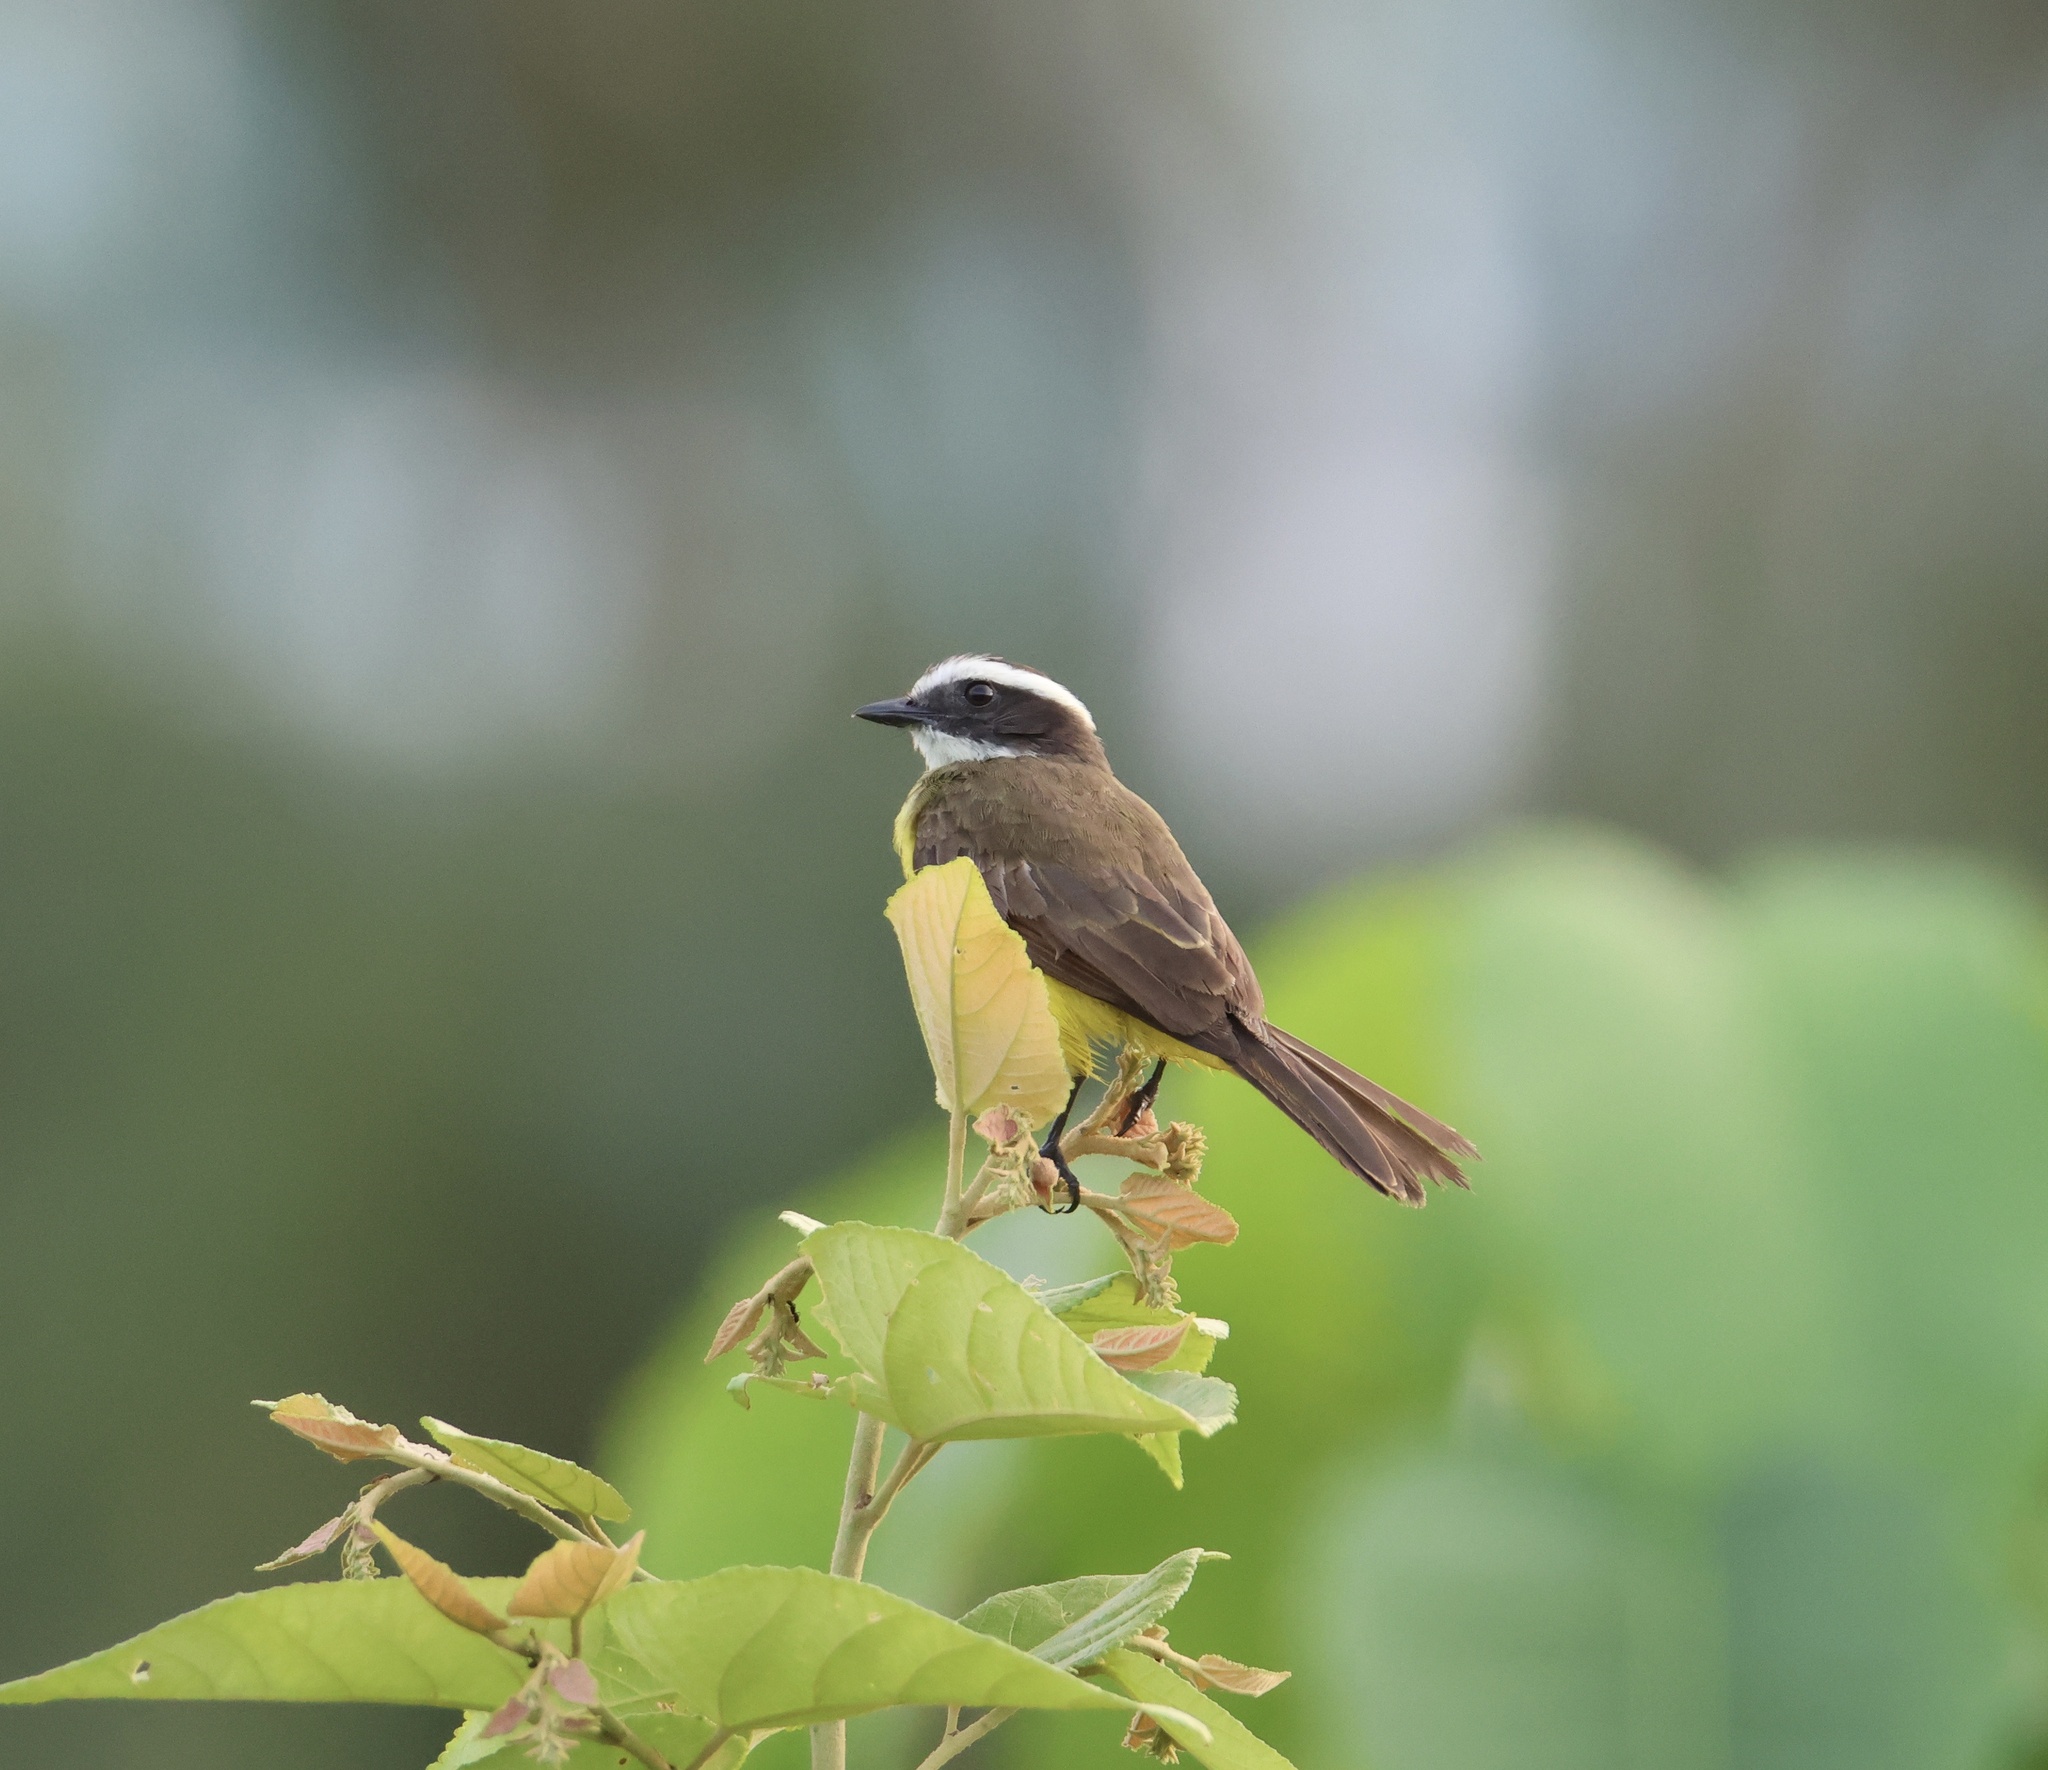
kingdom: Animalia
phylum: Chordata
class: Aves
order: Passeriformes
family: Tyrannidae
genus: Myiozetetes
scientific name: Myiozetetes cayanensis
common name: Rusty-margined flycatcher
